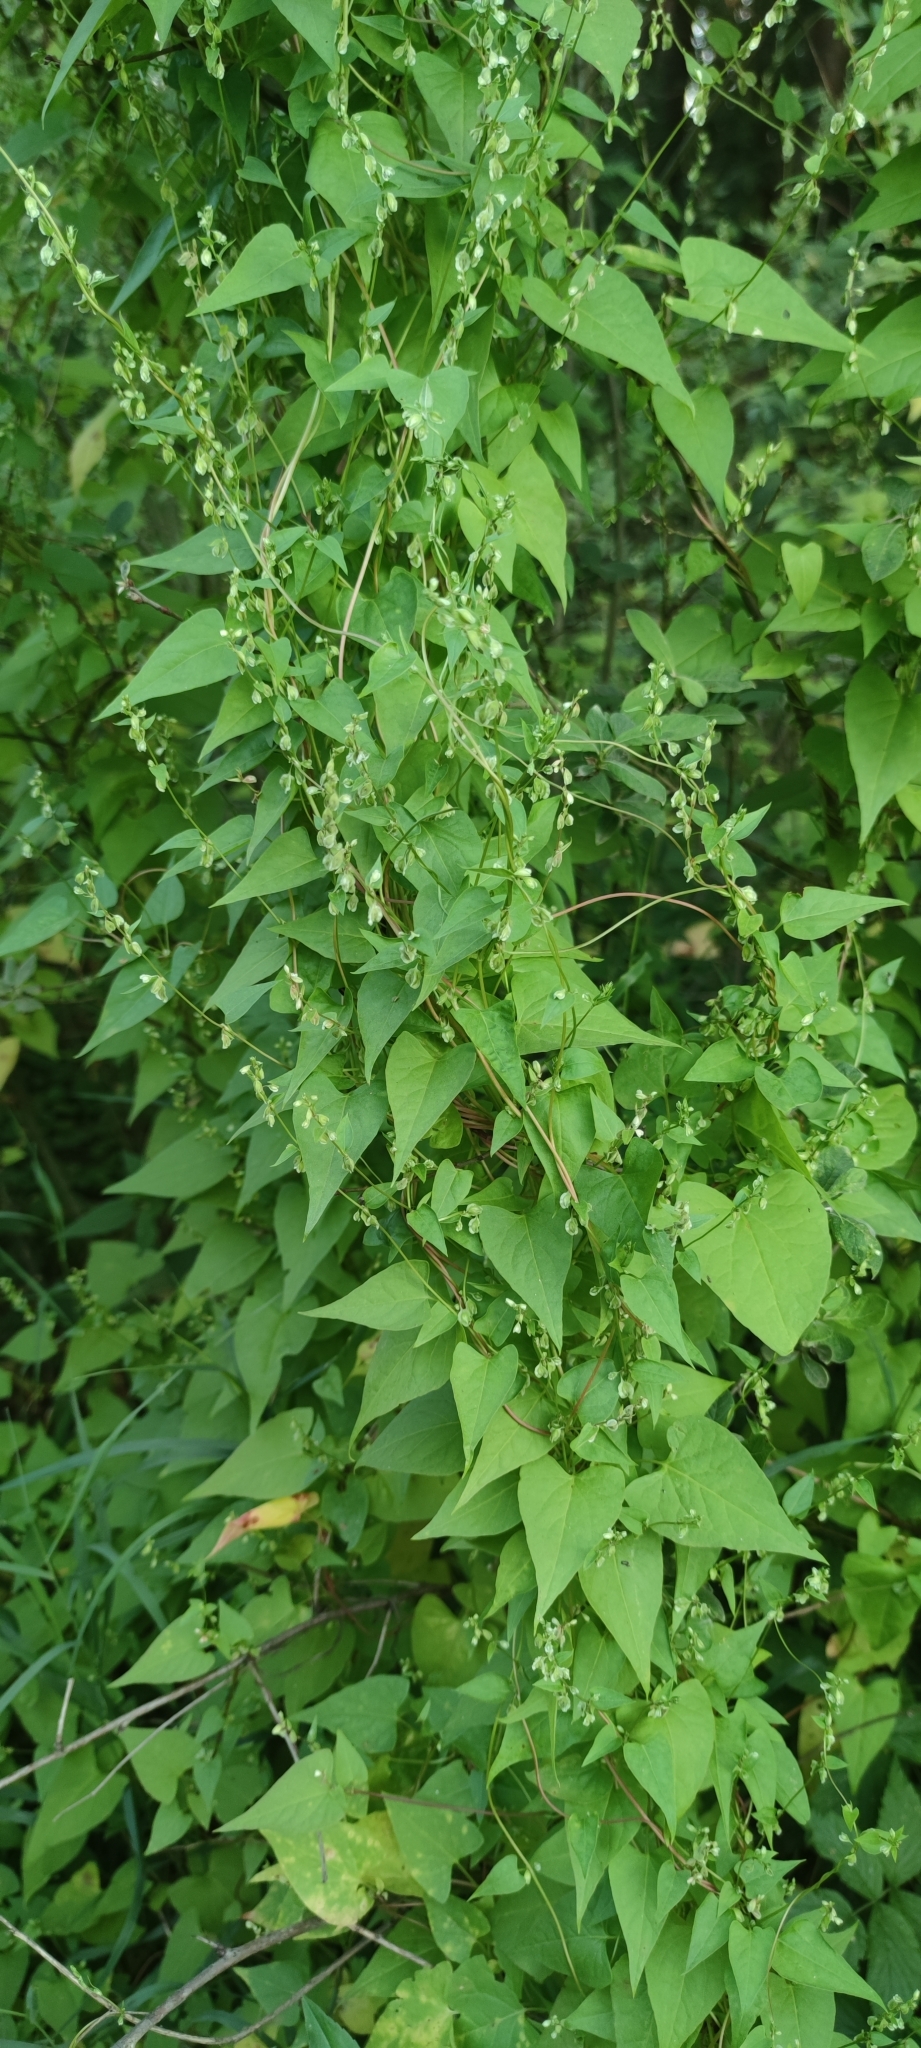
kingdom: Plantae
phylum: Tracheophyta
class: Magnoliopsida
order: Caryophyllales
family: Polygonaceae
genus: Fallopia
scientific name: Fallopia dumetorum
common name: Copse-bindweed
